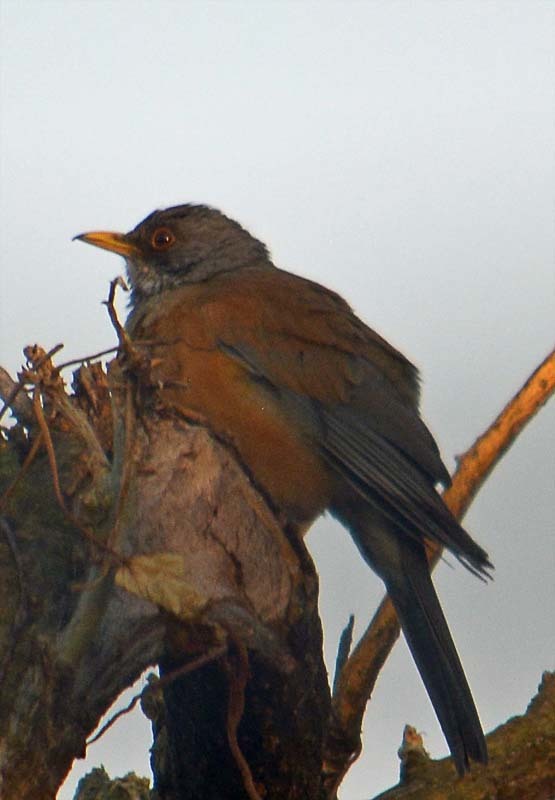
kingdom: Animalia
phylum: Chordata
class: Aves
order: Passeriformes
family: Turdidae
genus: Turdus
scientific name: Turdus rufopalliatus
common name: Rufous-backed robin
